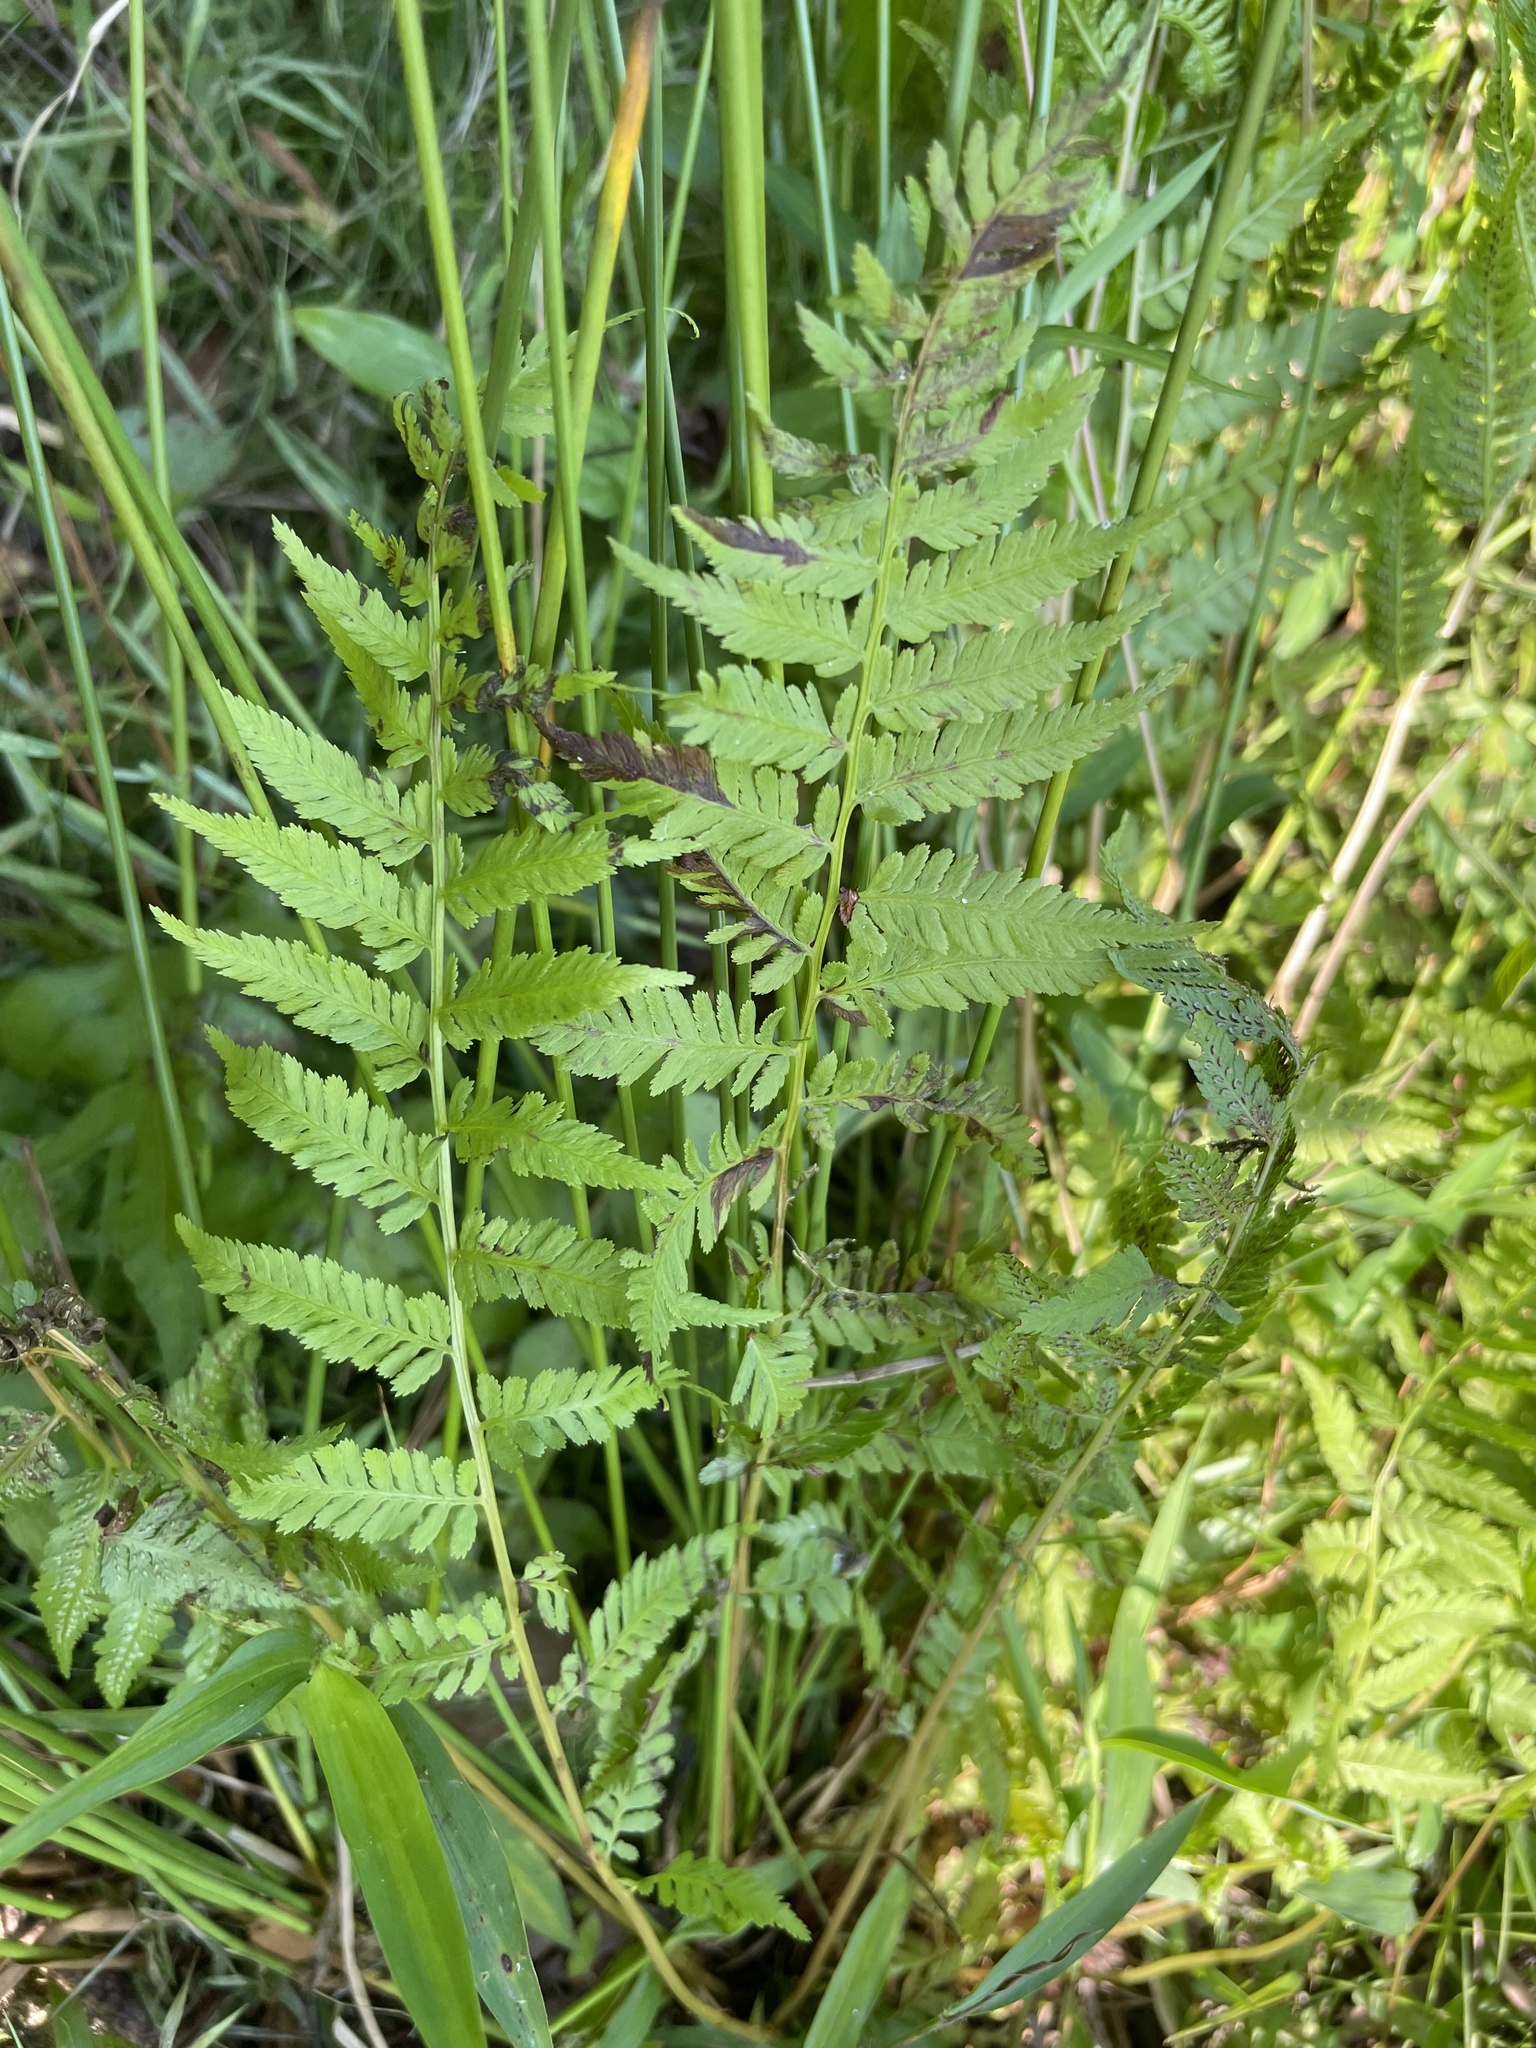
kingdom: Plantae
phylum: Tracheophyta
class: Polypodiopsida
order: Polypodiales
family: Athyriaceae
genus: Athyrium
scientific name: Athyrium asplenioides
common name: Southern lady fern
